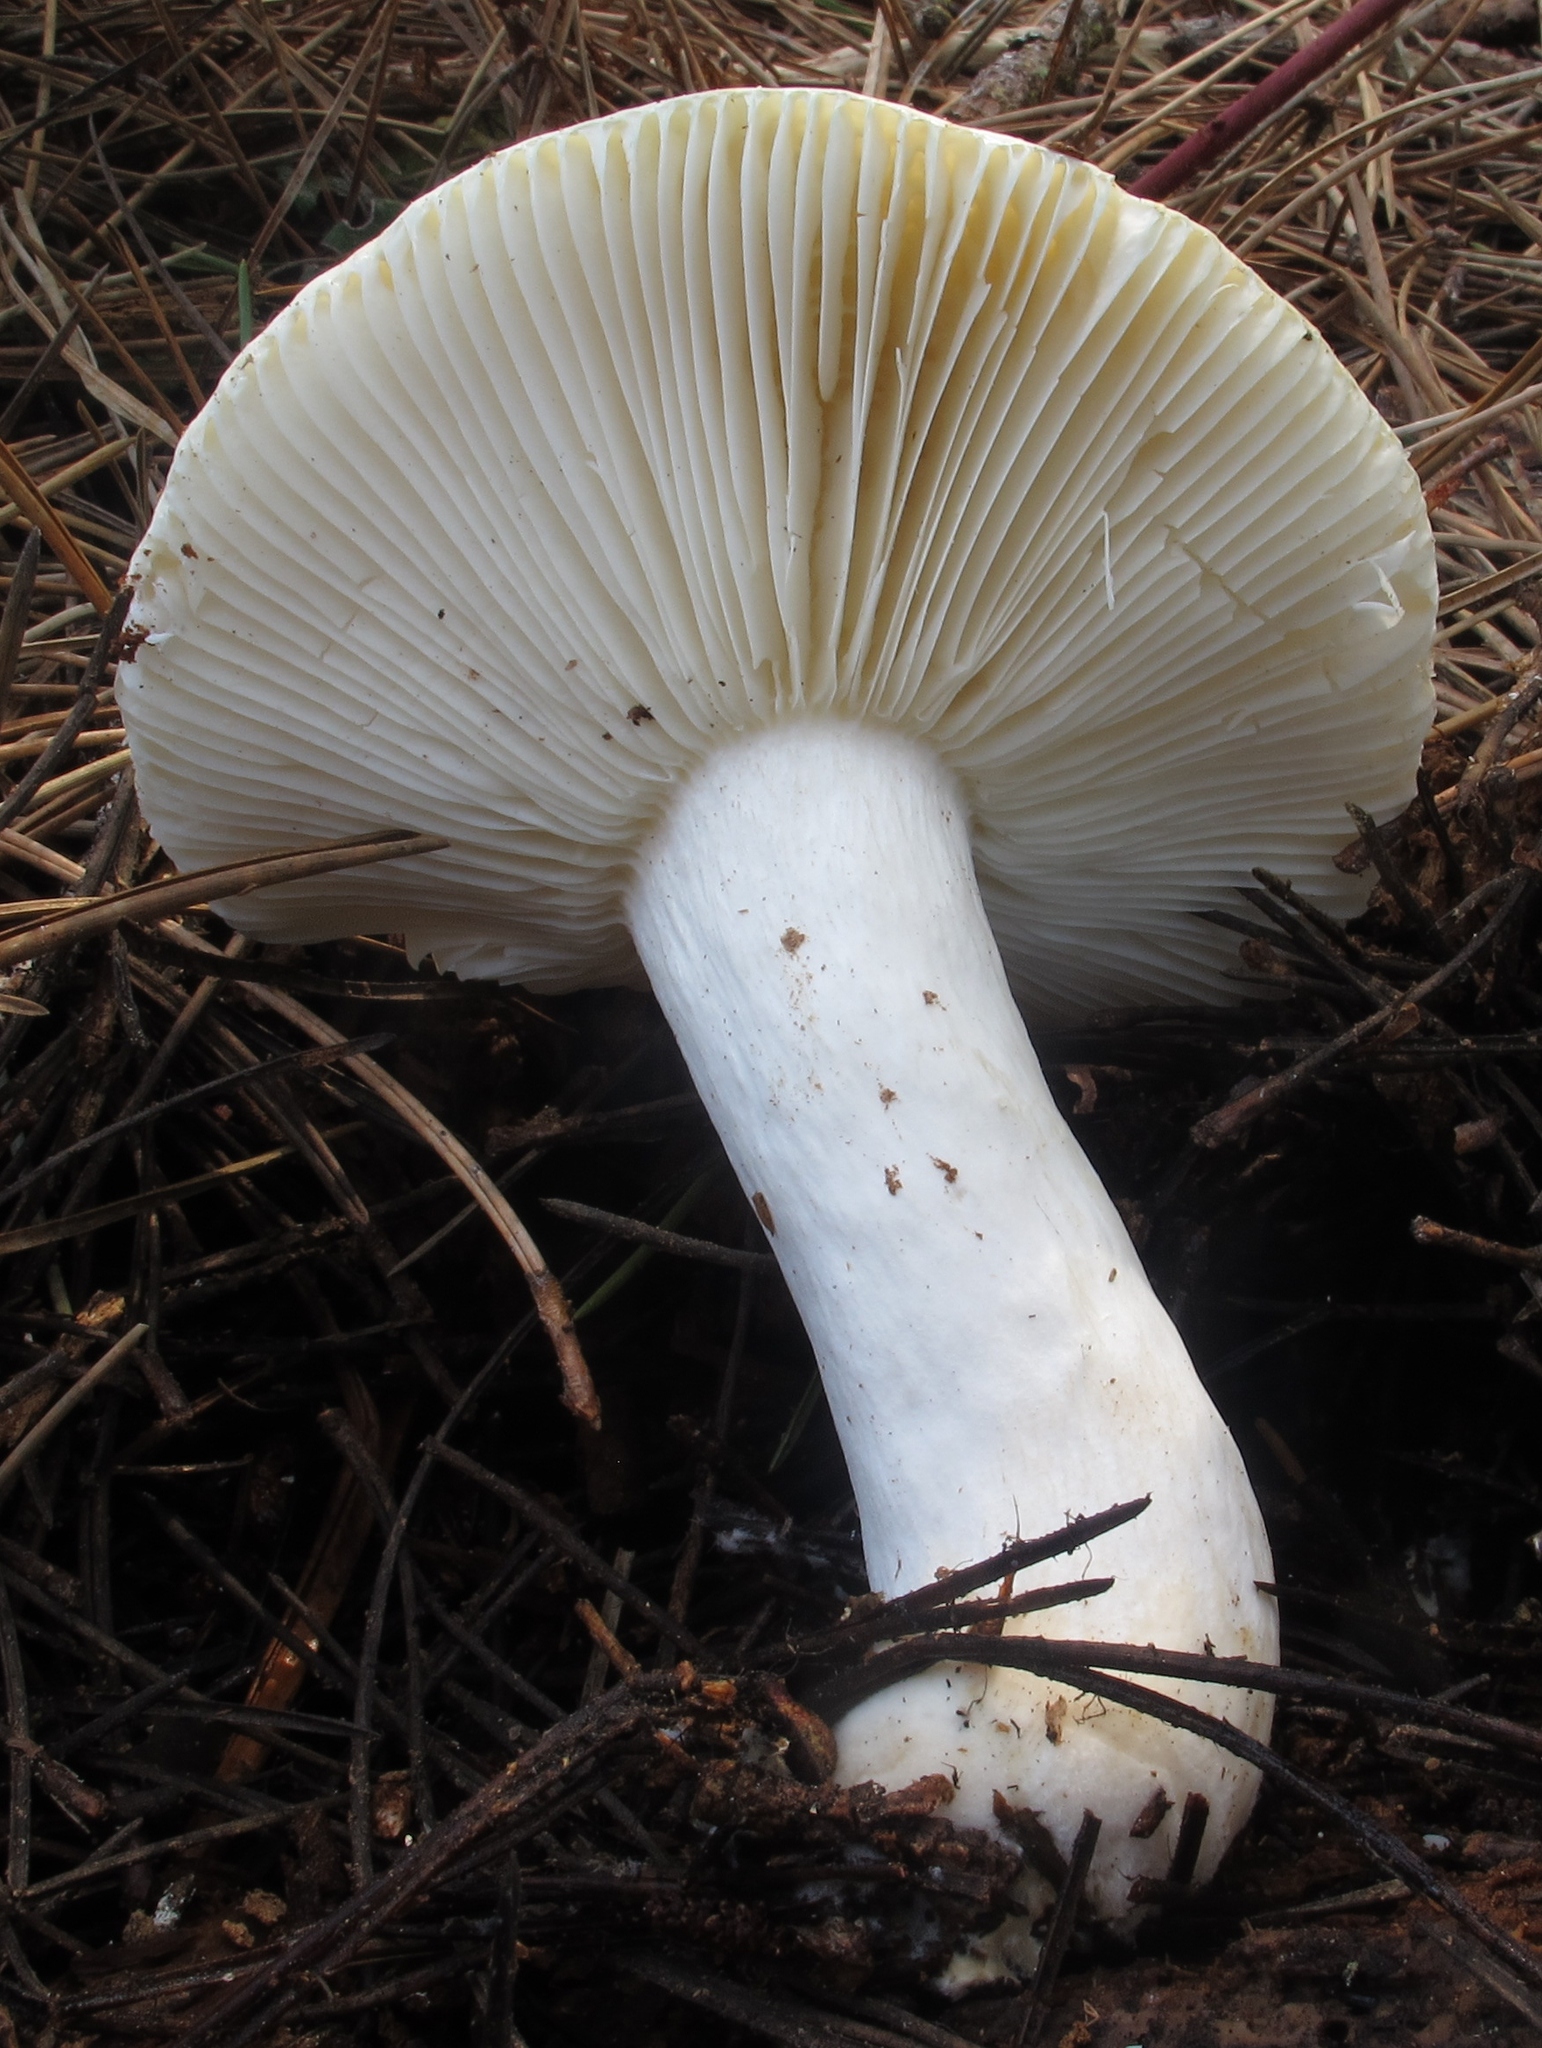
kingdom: Fungi
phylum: Basidiomycota
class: Agaricomycetes
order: Russulales
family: Russulaceae
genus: Russula
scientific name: Russula cremoricolor
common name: Winter russula
